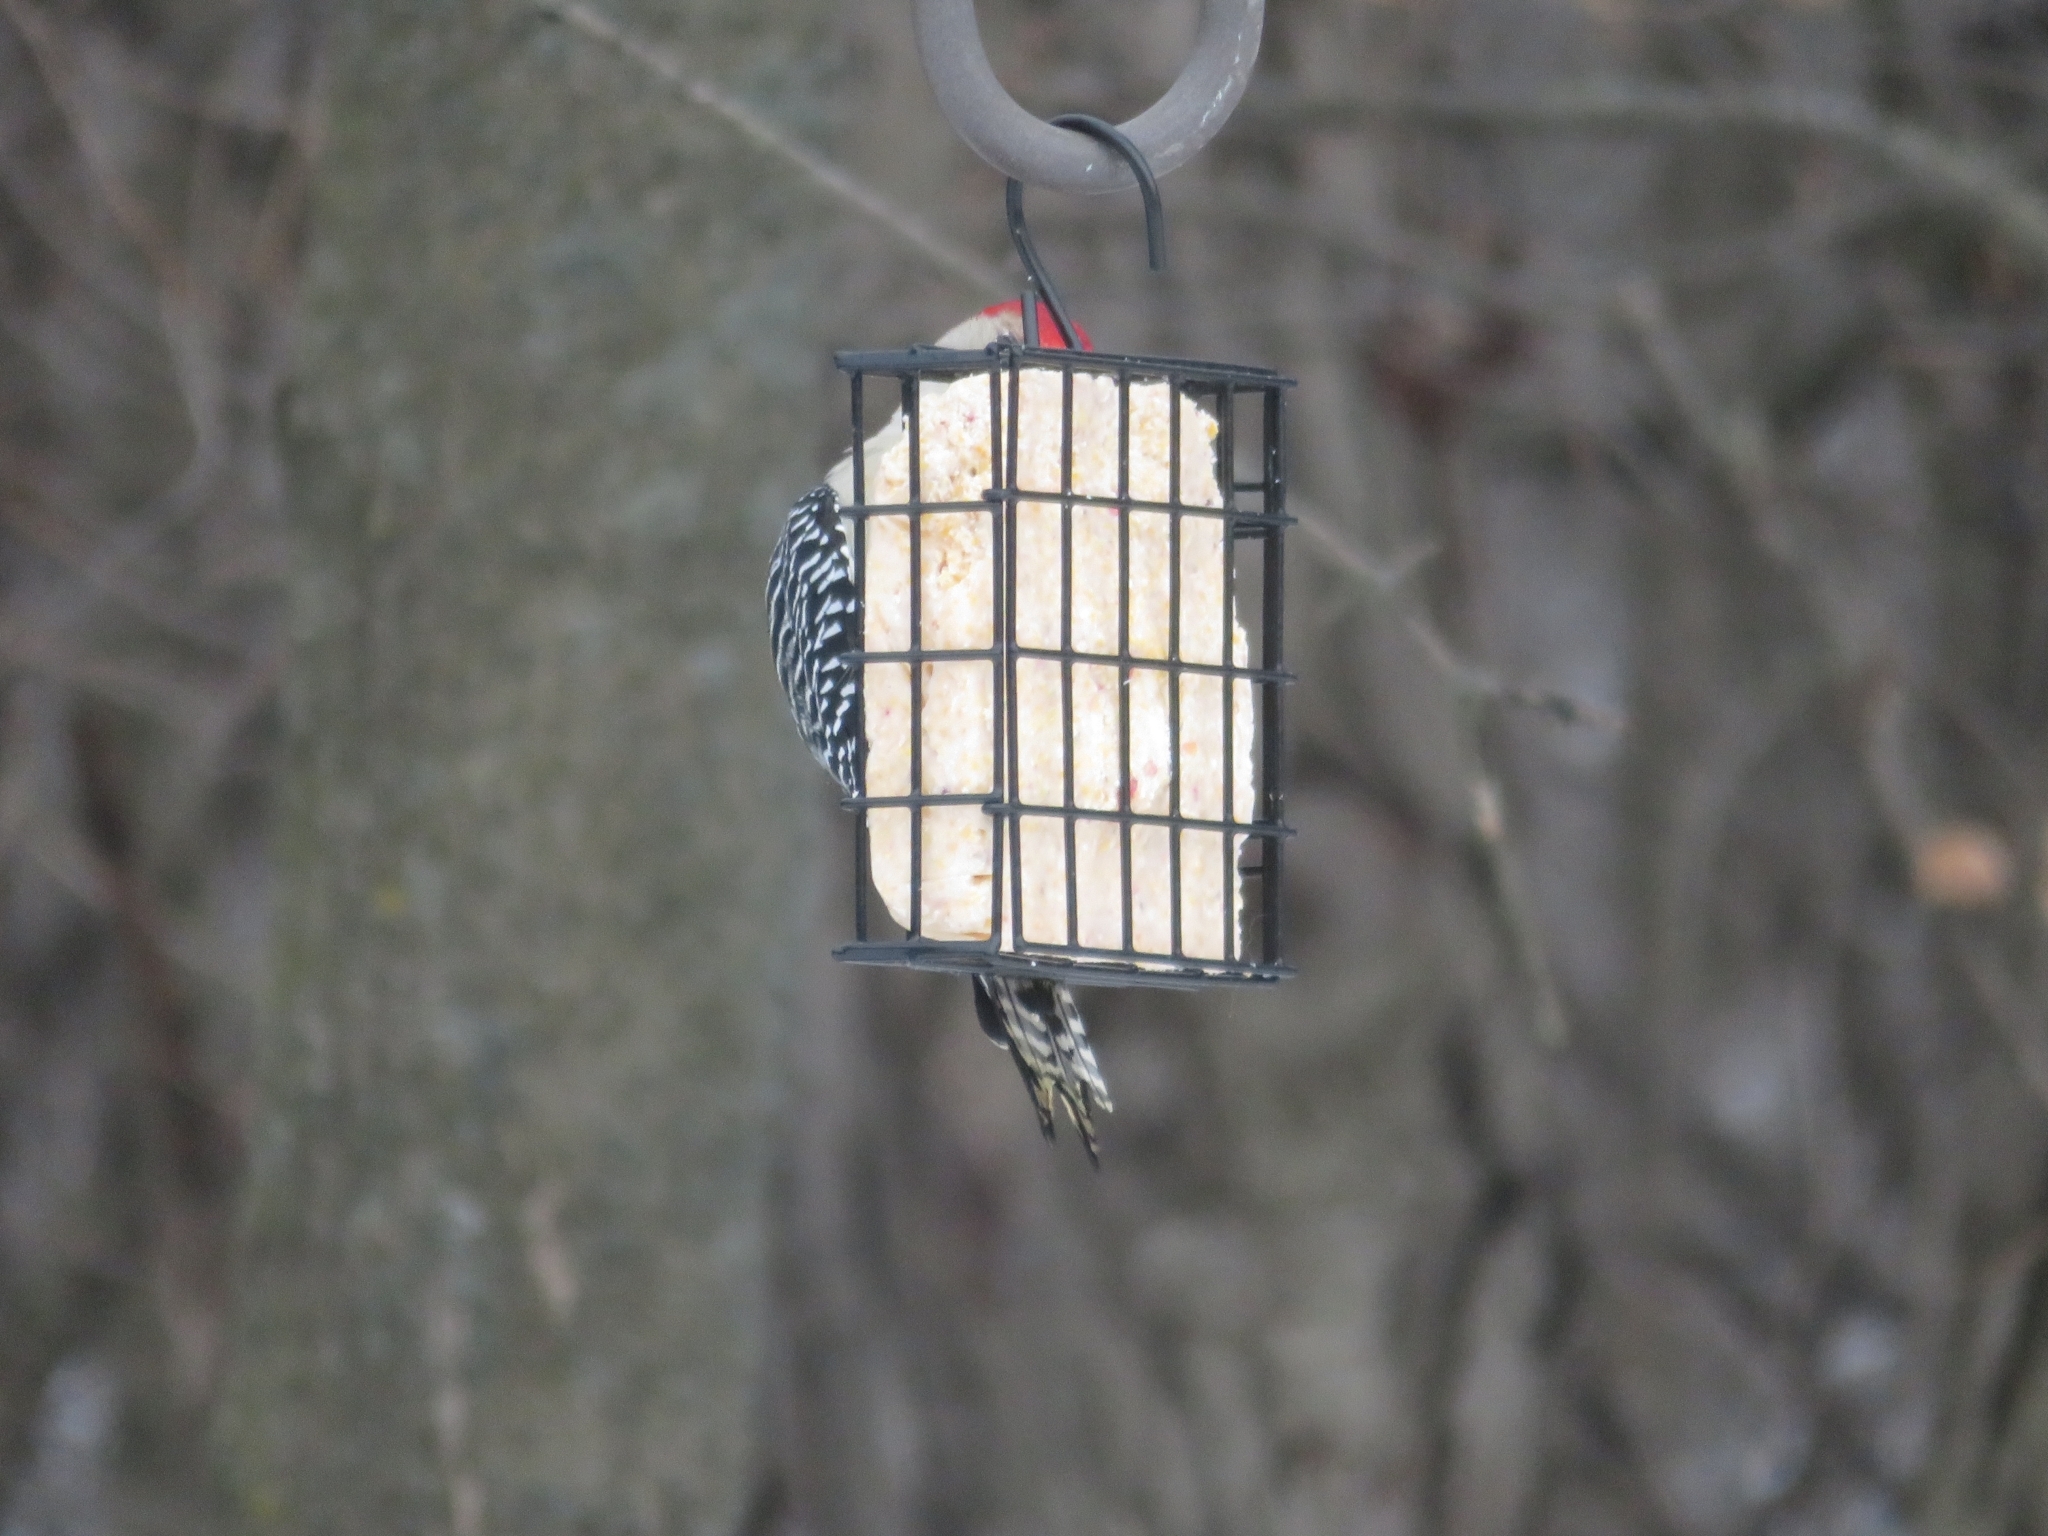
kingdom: Animalia
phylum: Chordata
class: Aves
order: Piciformes
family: Picidae
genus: Melanerpes
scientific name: Melanerpes carolinus
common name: Red-bellied woodpecker
